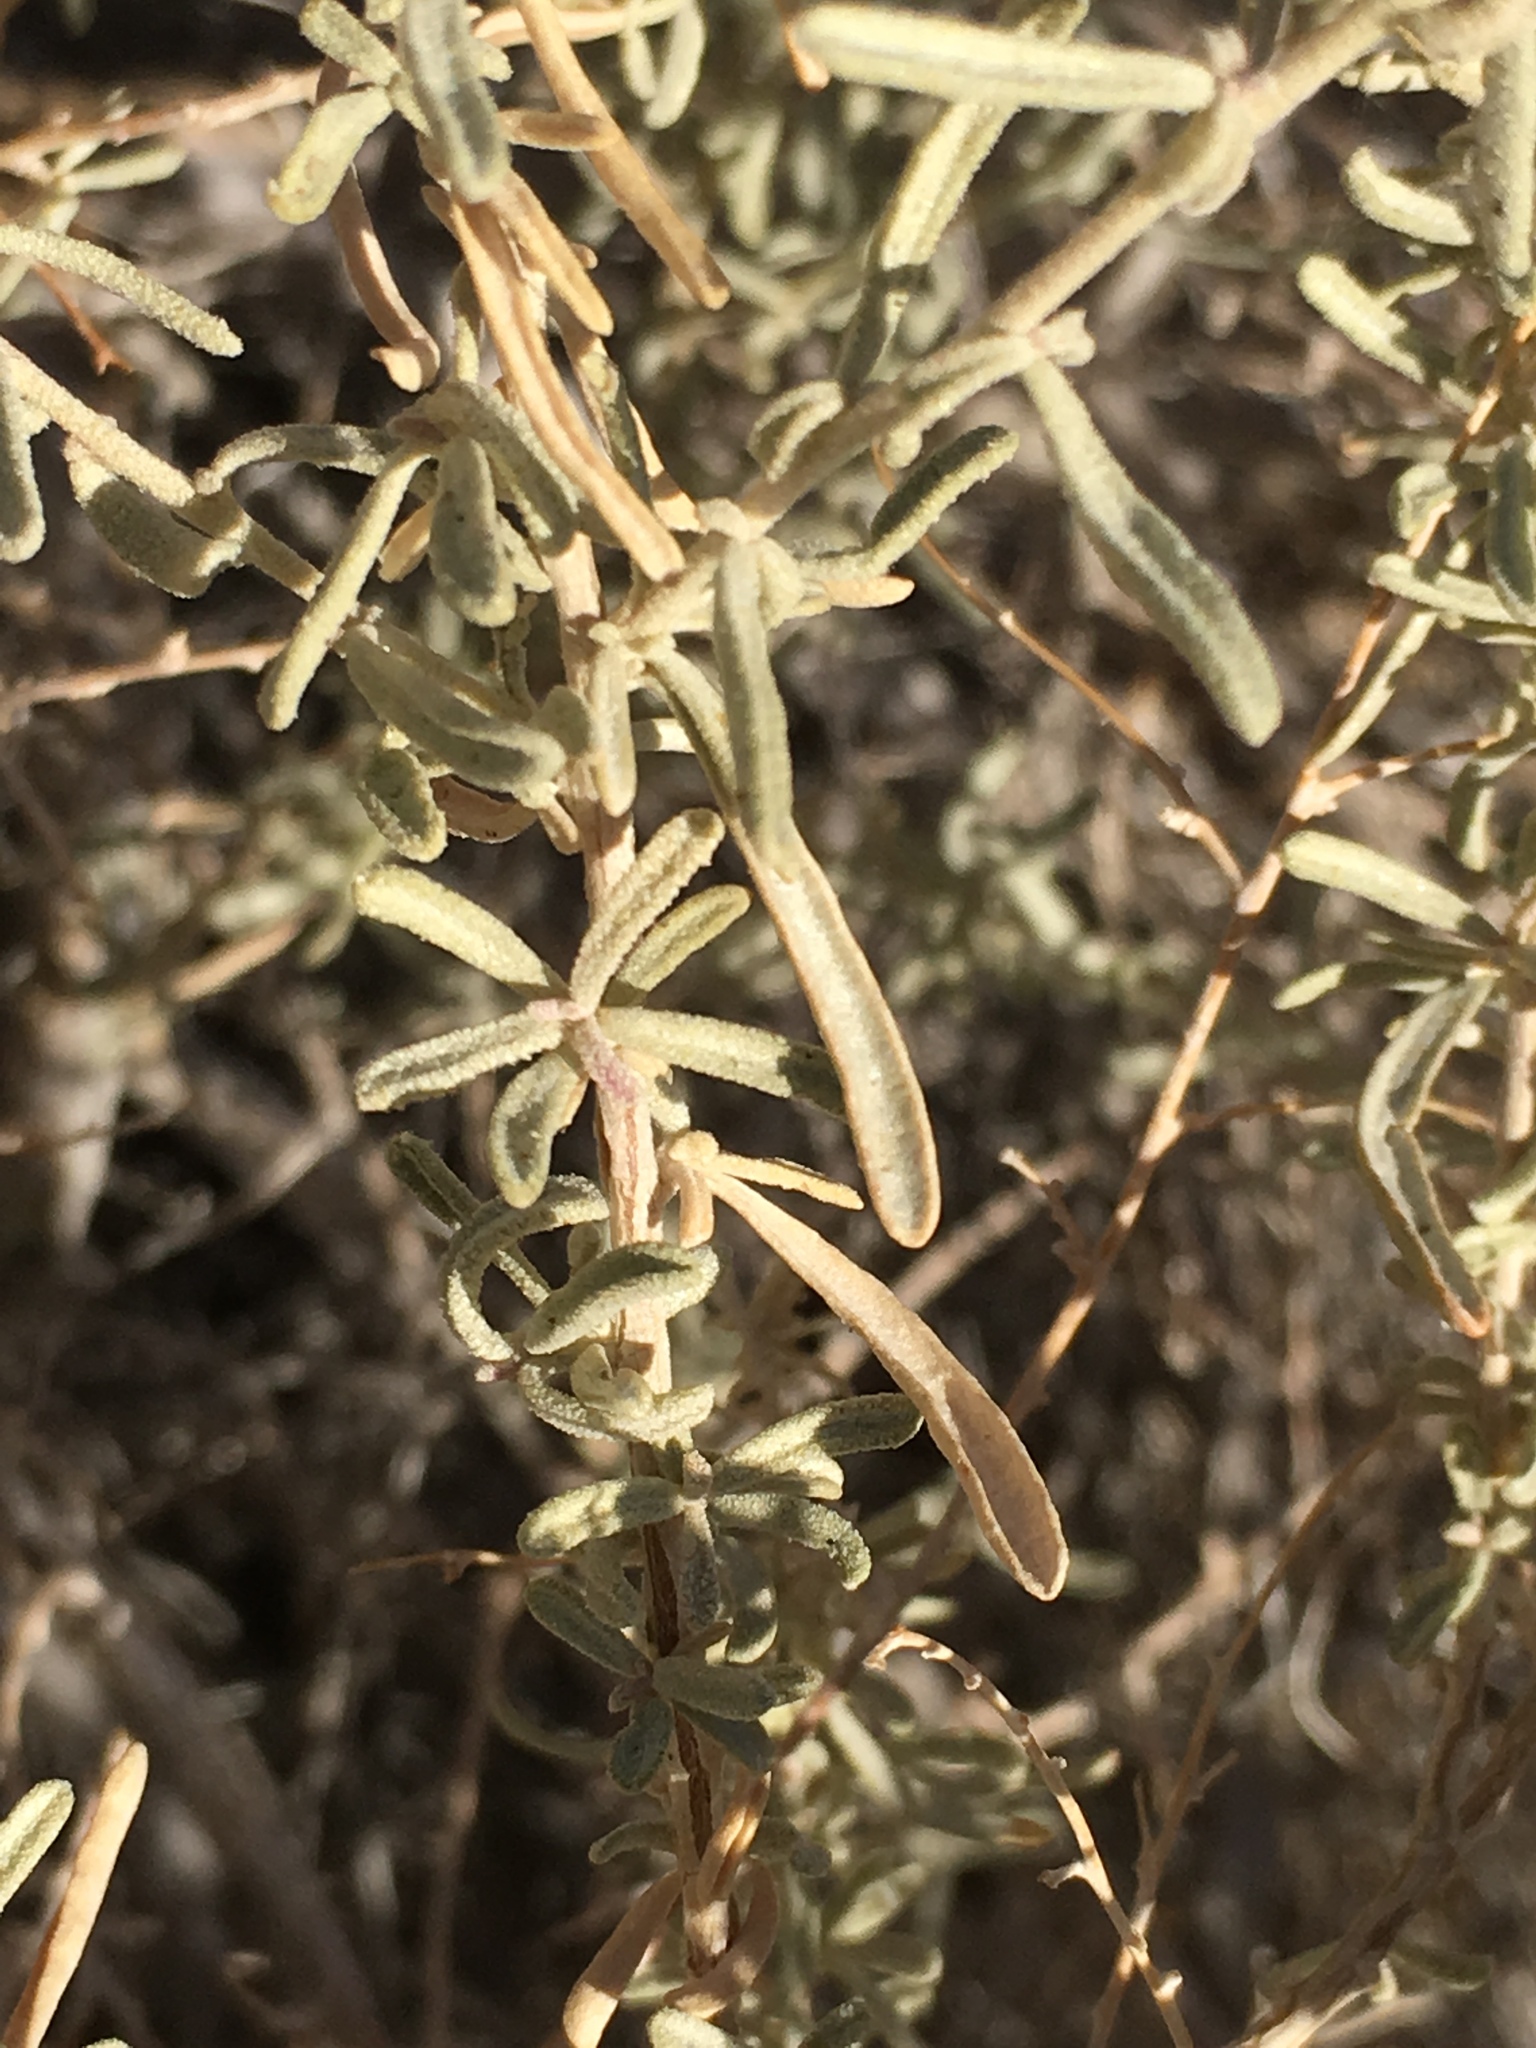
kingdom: Plantae
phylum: Tracheophyta
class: Magnoliopsida
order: Caryophyllales
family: Amaranthaceae
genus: Atriplex
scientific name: Atriplex canescens
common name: Four-wing saltbush
